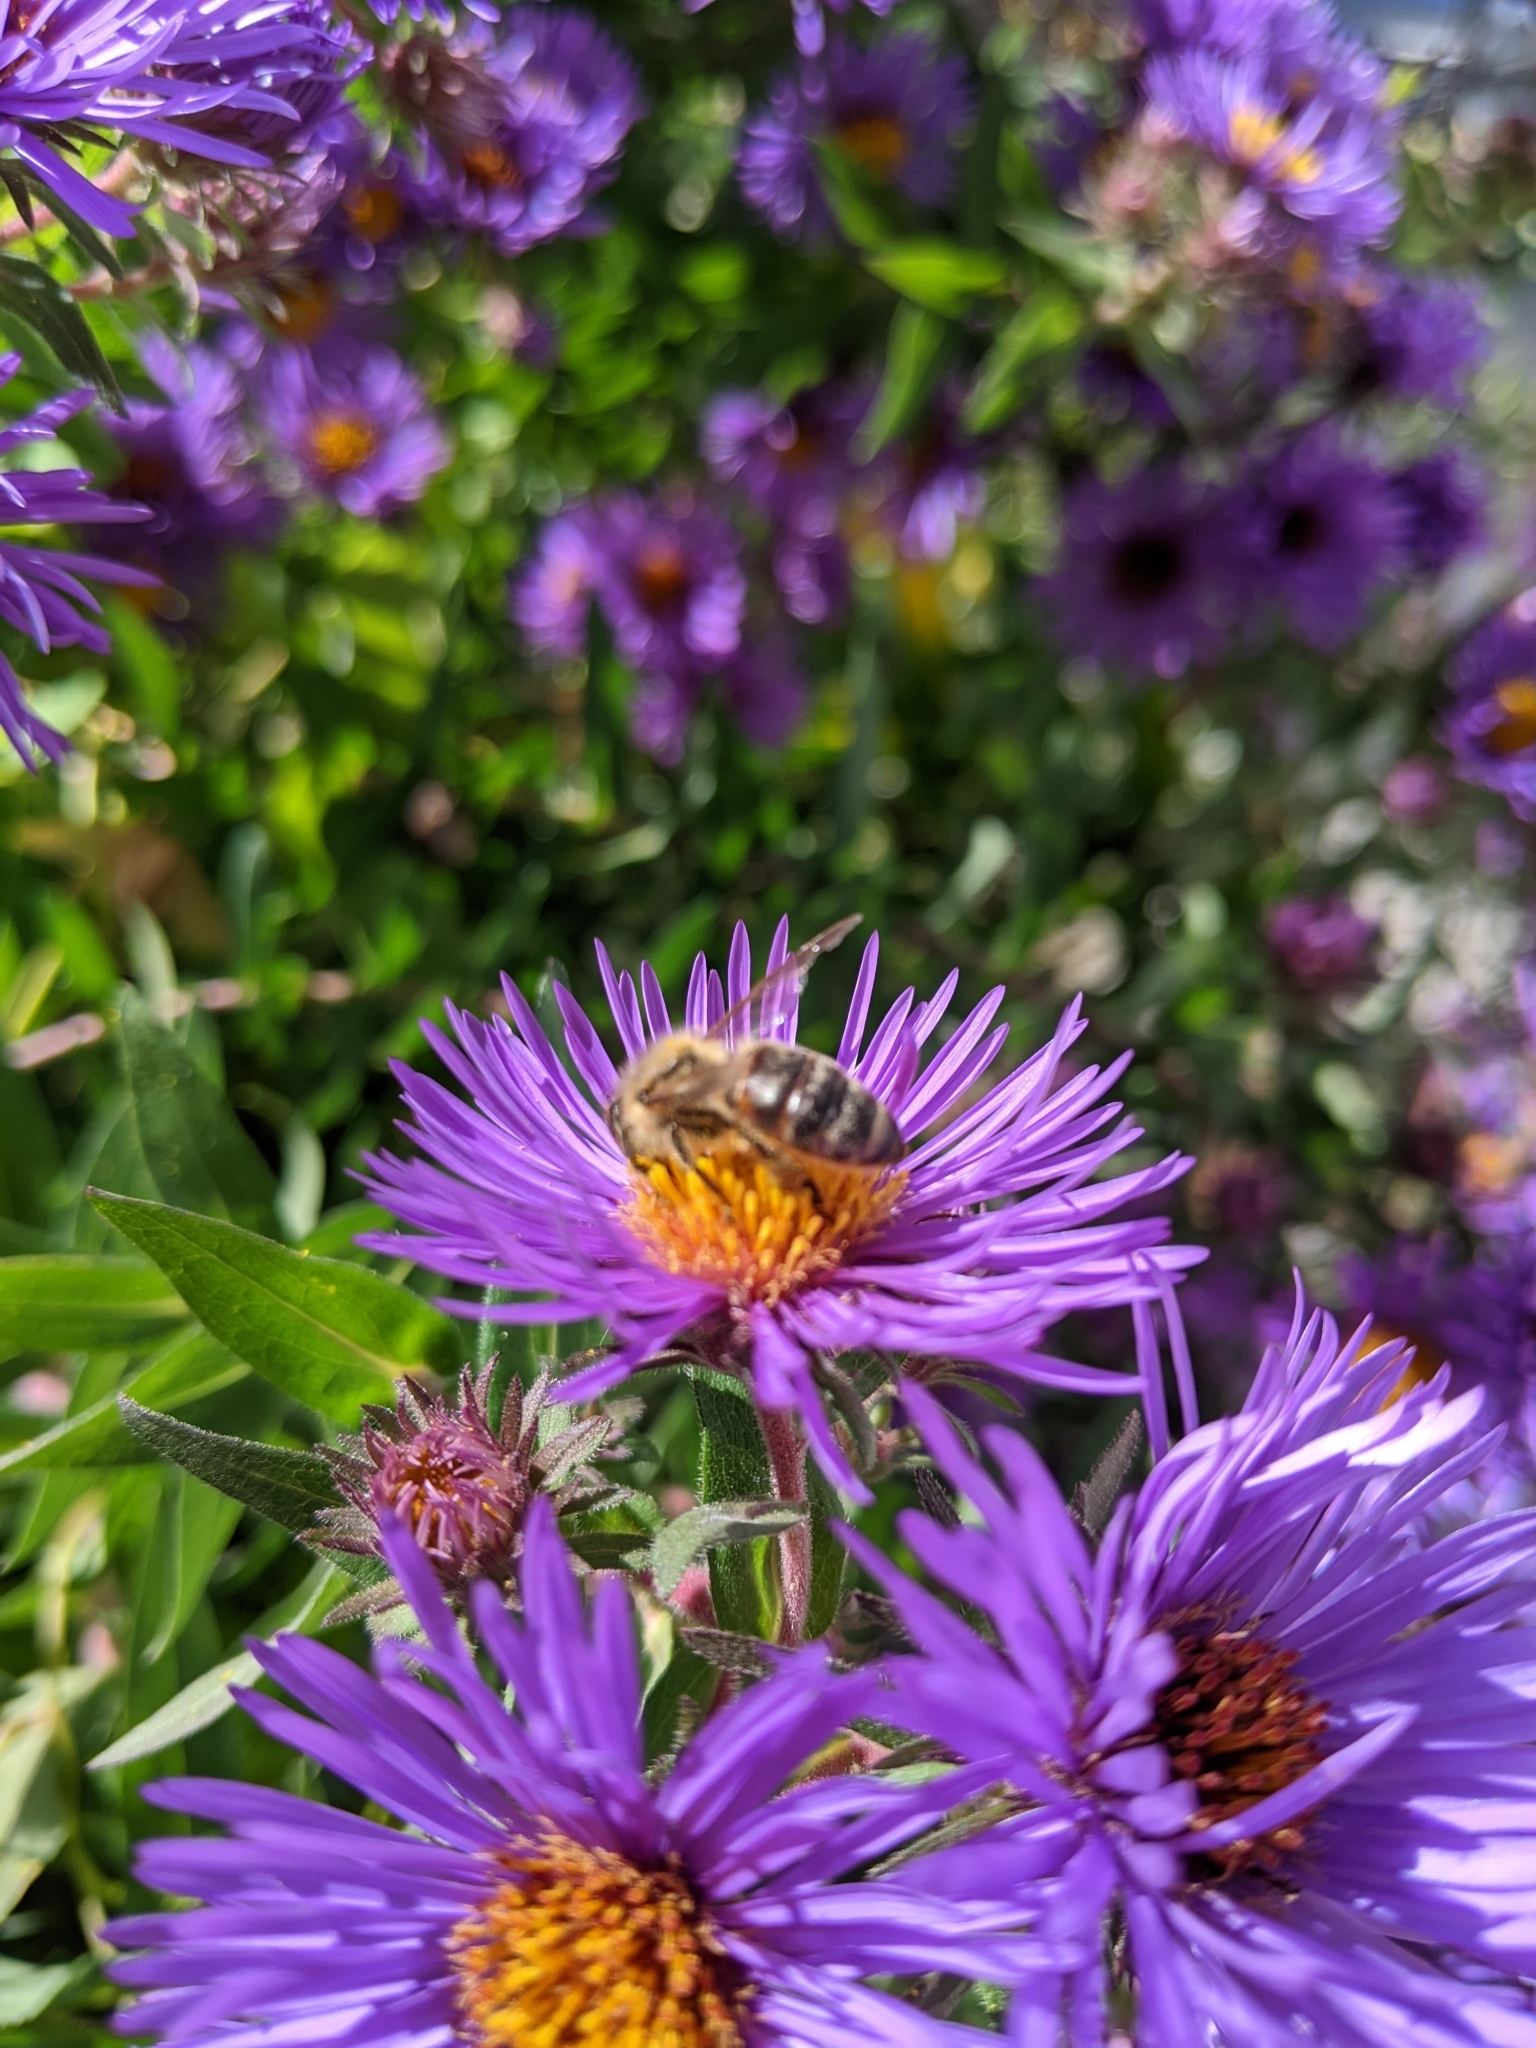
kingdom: Animalia
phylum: Arthropoda
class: Insecta
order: Hymenoptera
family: Apidae
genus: Apis
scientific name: Apis mellifera
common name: Honey bee
